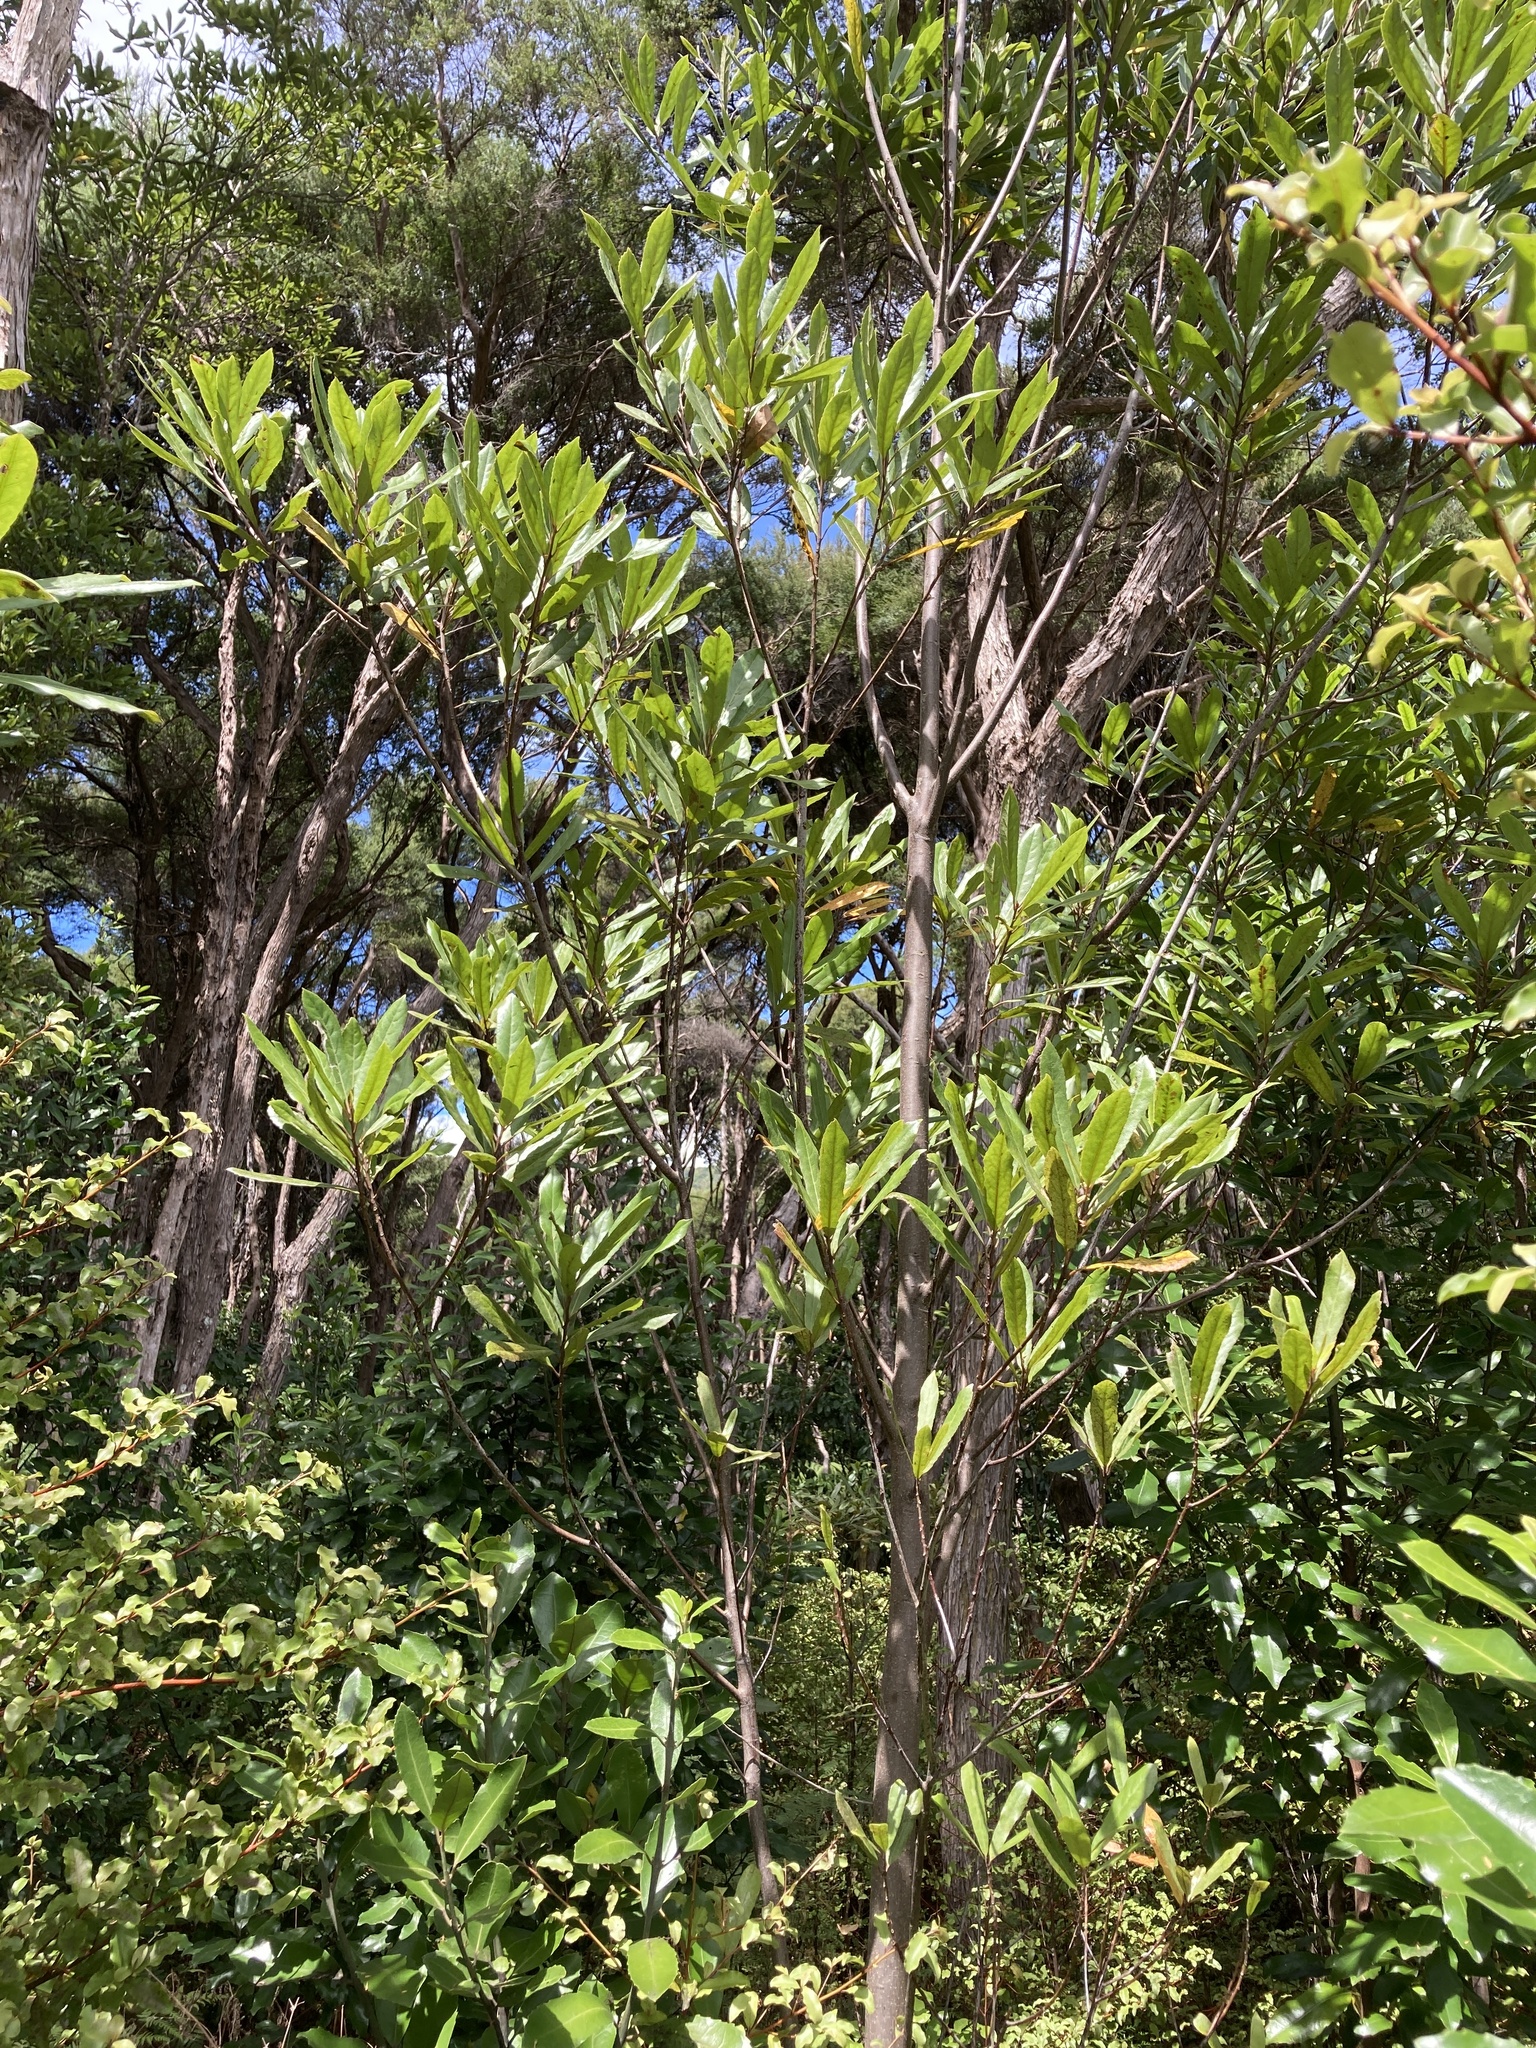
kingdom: Plantae
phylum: Tracheophyta
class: Magnoliopsida
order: Oxalidales
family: Elaeocarpaceae
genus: Elaeocarpus
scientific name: Elaeocarpus dentatus
